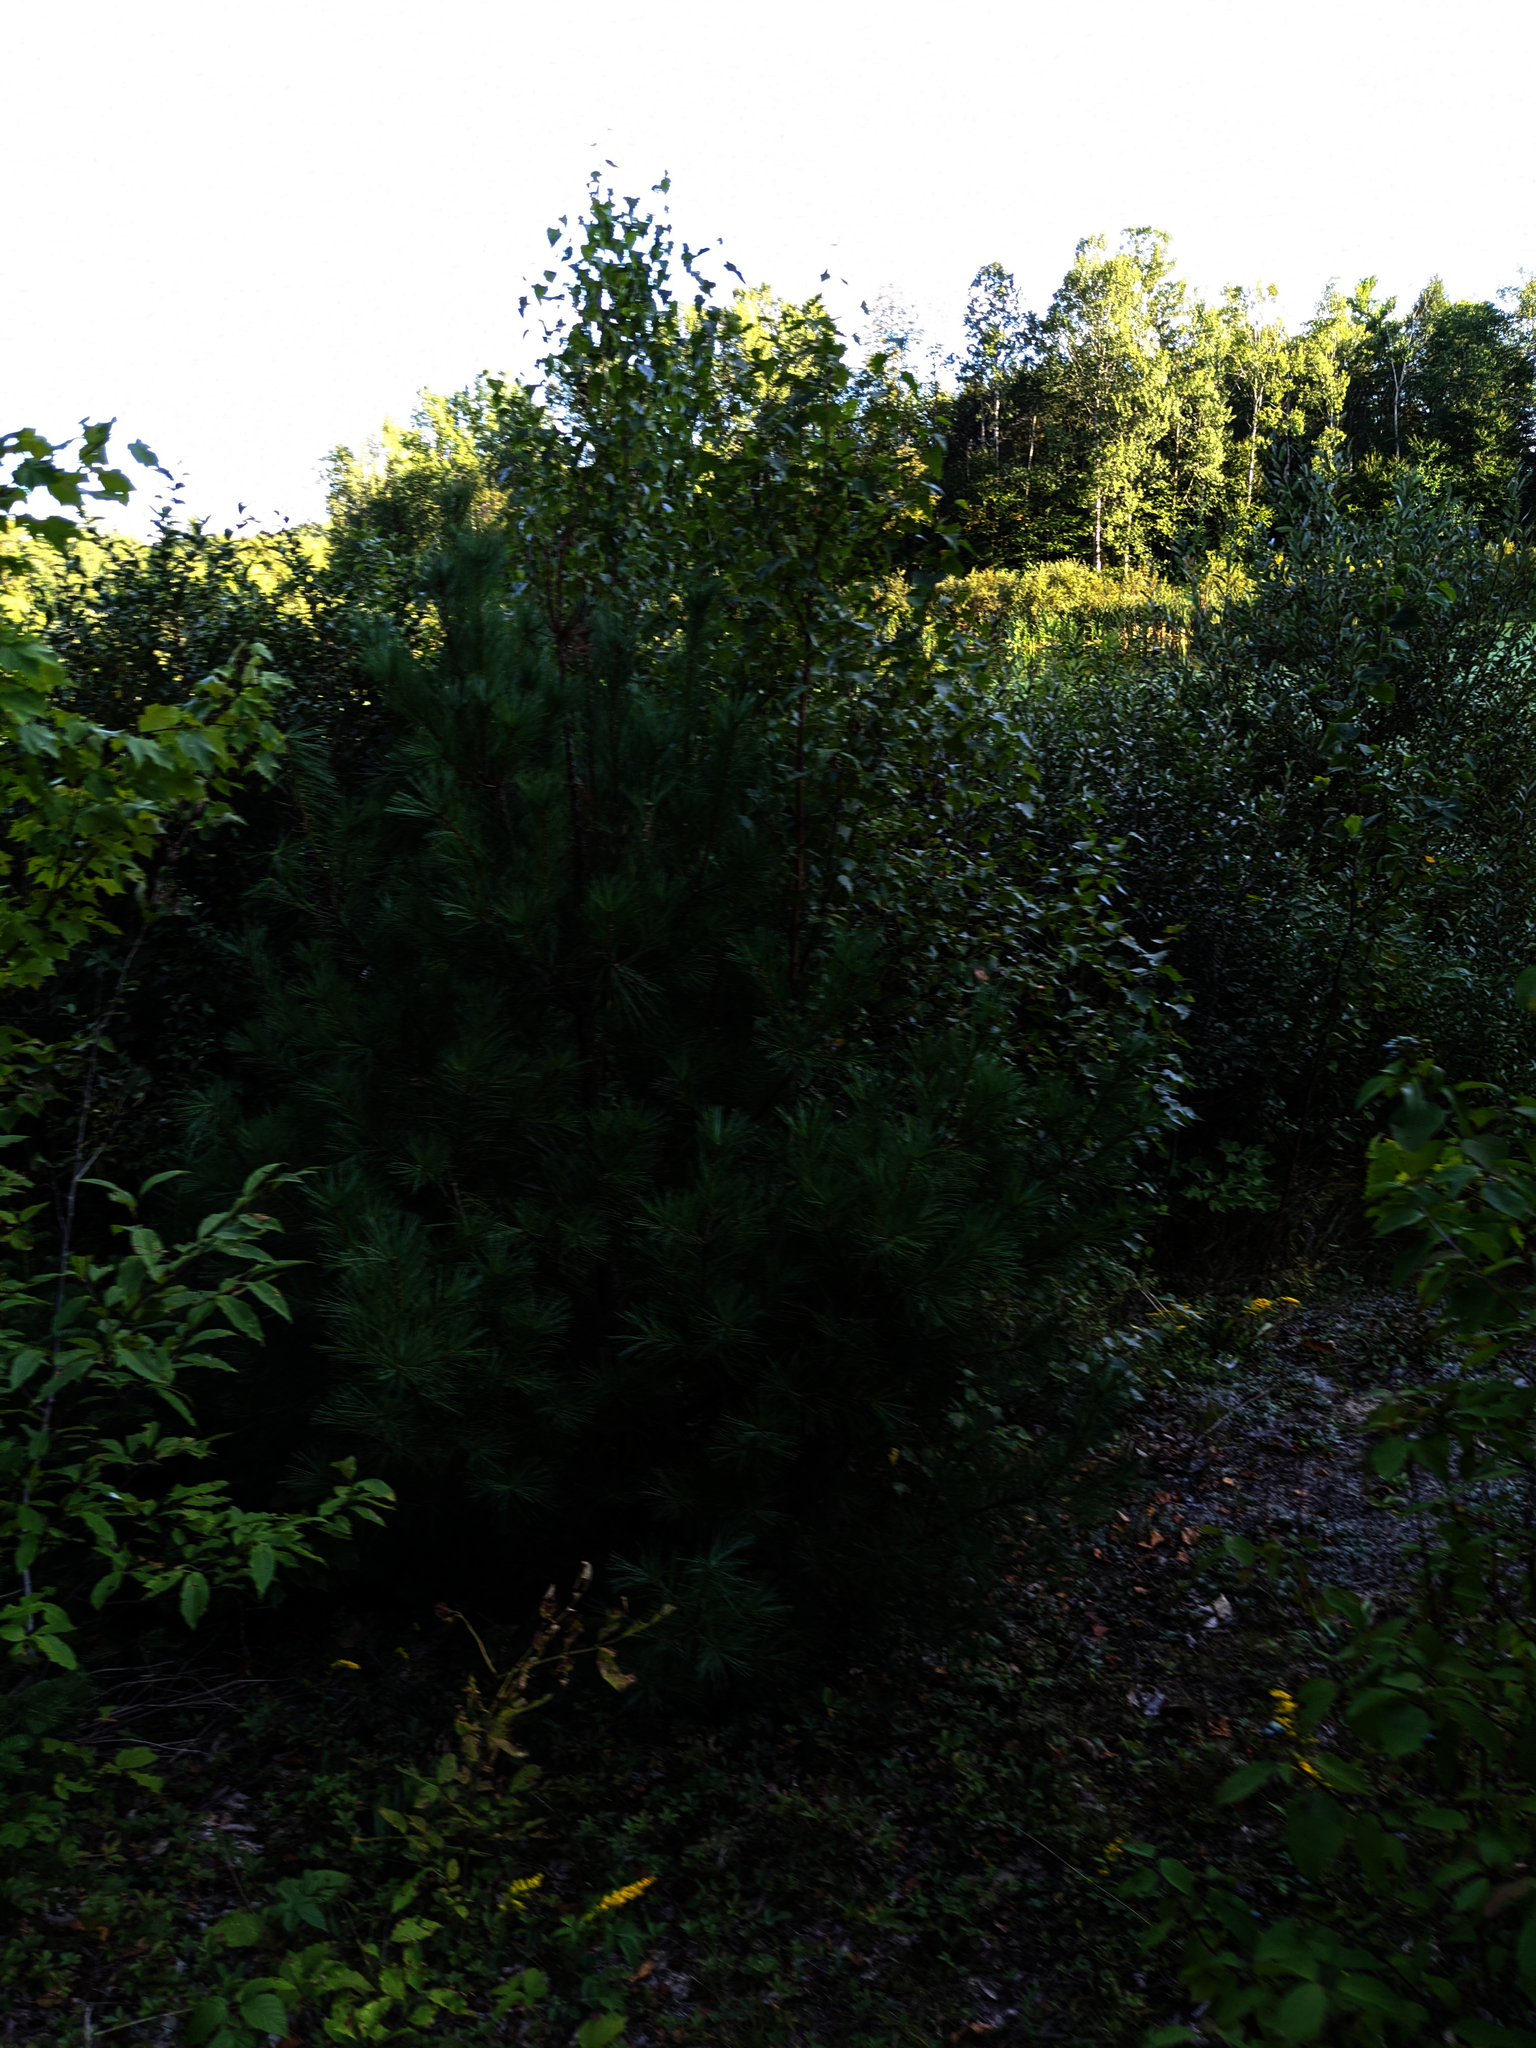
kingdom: Plantae
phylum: Tracheophyta
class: Pinopsida
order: Pinales
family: Pinaceae
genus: Pinus
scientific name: Pinus strobus
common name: Weymouth pine
